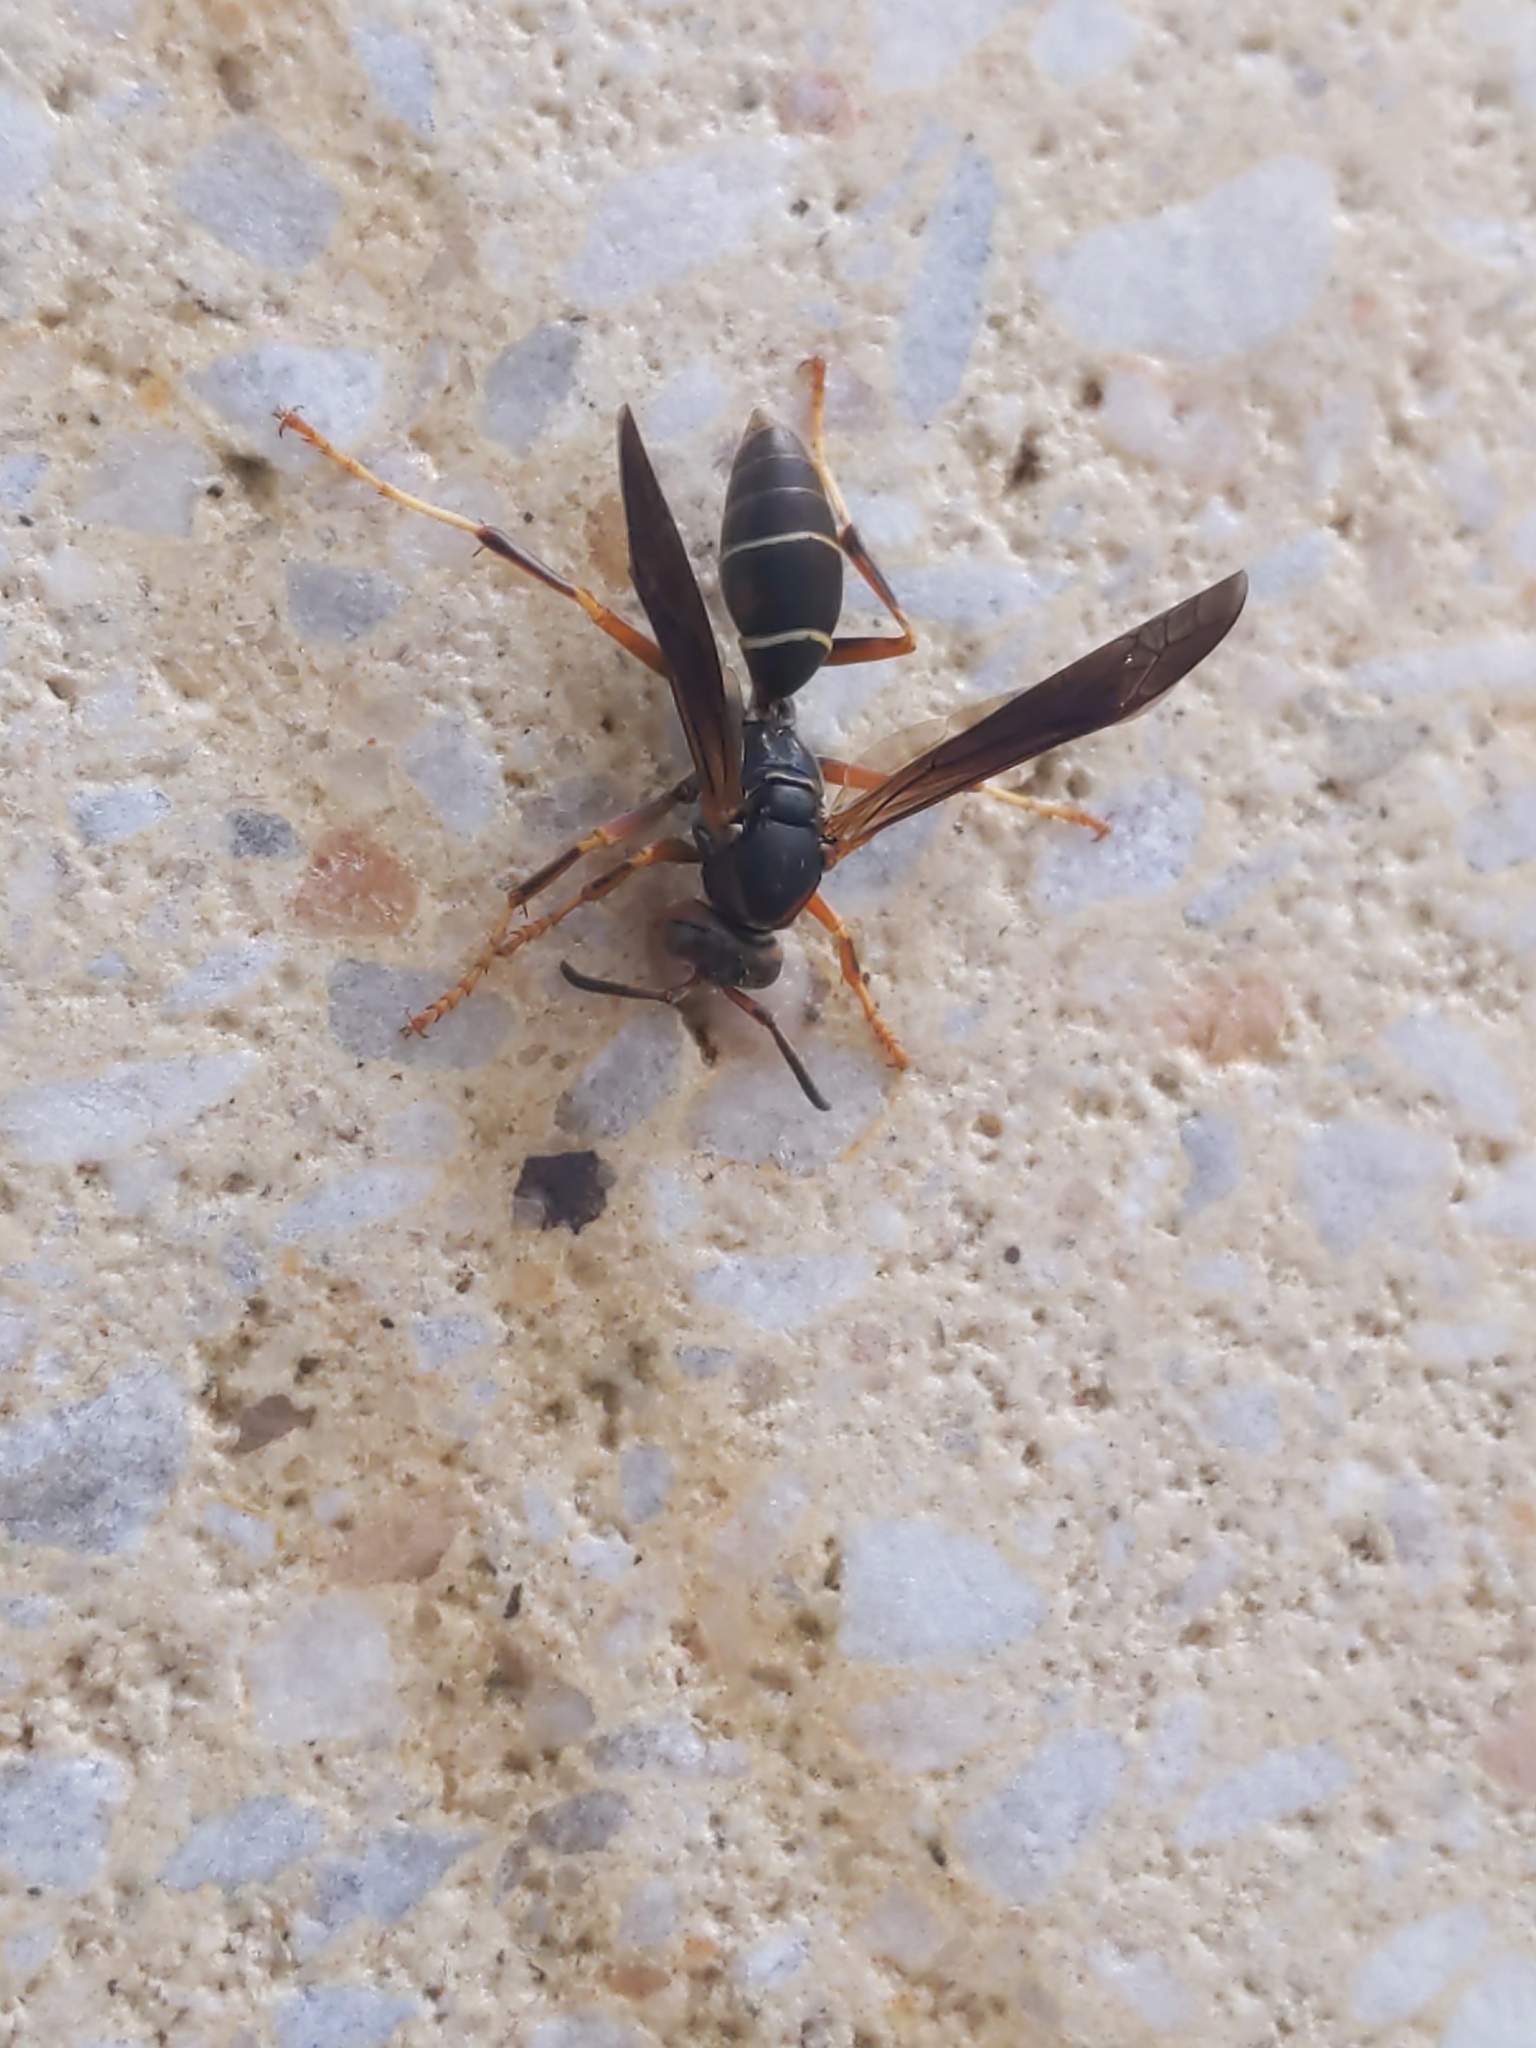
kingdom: Animalia
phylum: Arthropoda
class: Insecta
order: Hymenoptera
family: Eumenidae
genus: Polistes
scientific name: Polistes fuscatus
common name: Dark paper wasp
